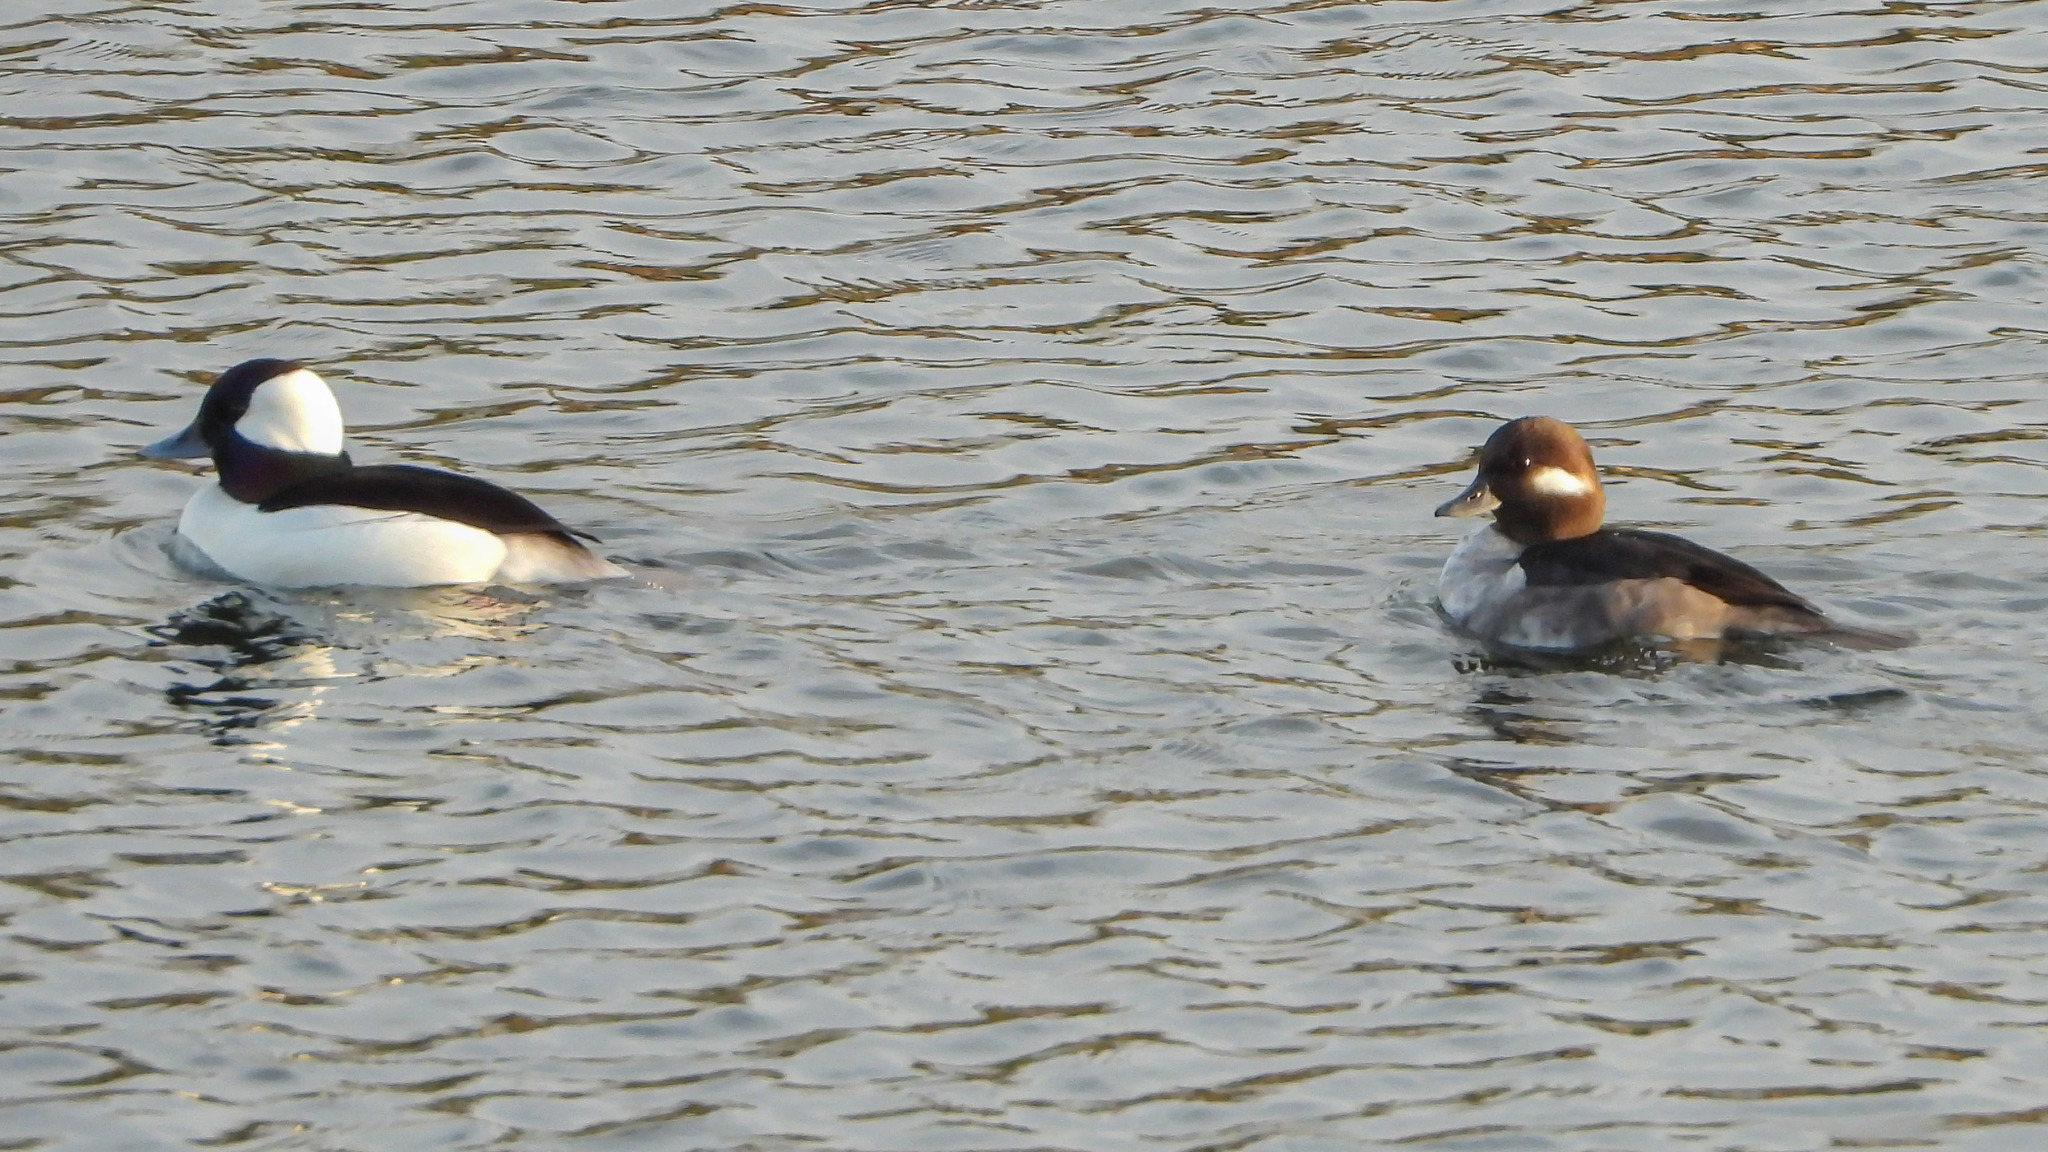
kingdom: Animalia
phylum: Chordata
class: Aves
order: Anseriformes
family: Anatidae
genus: Bucephala
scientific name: Bucephala albeola
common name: Bufflehead
